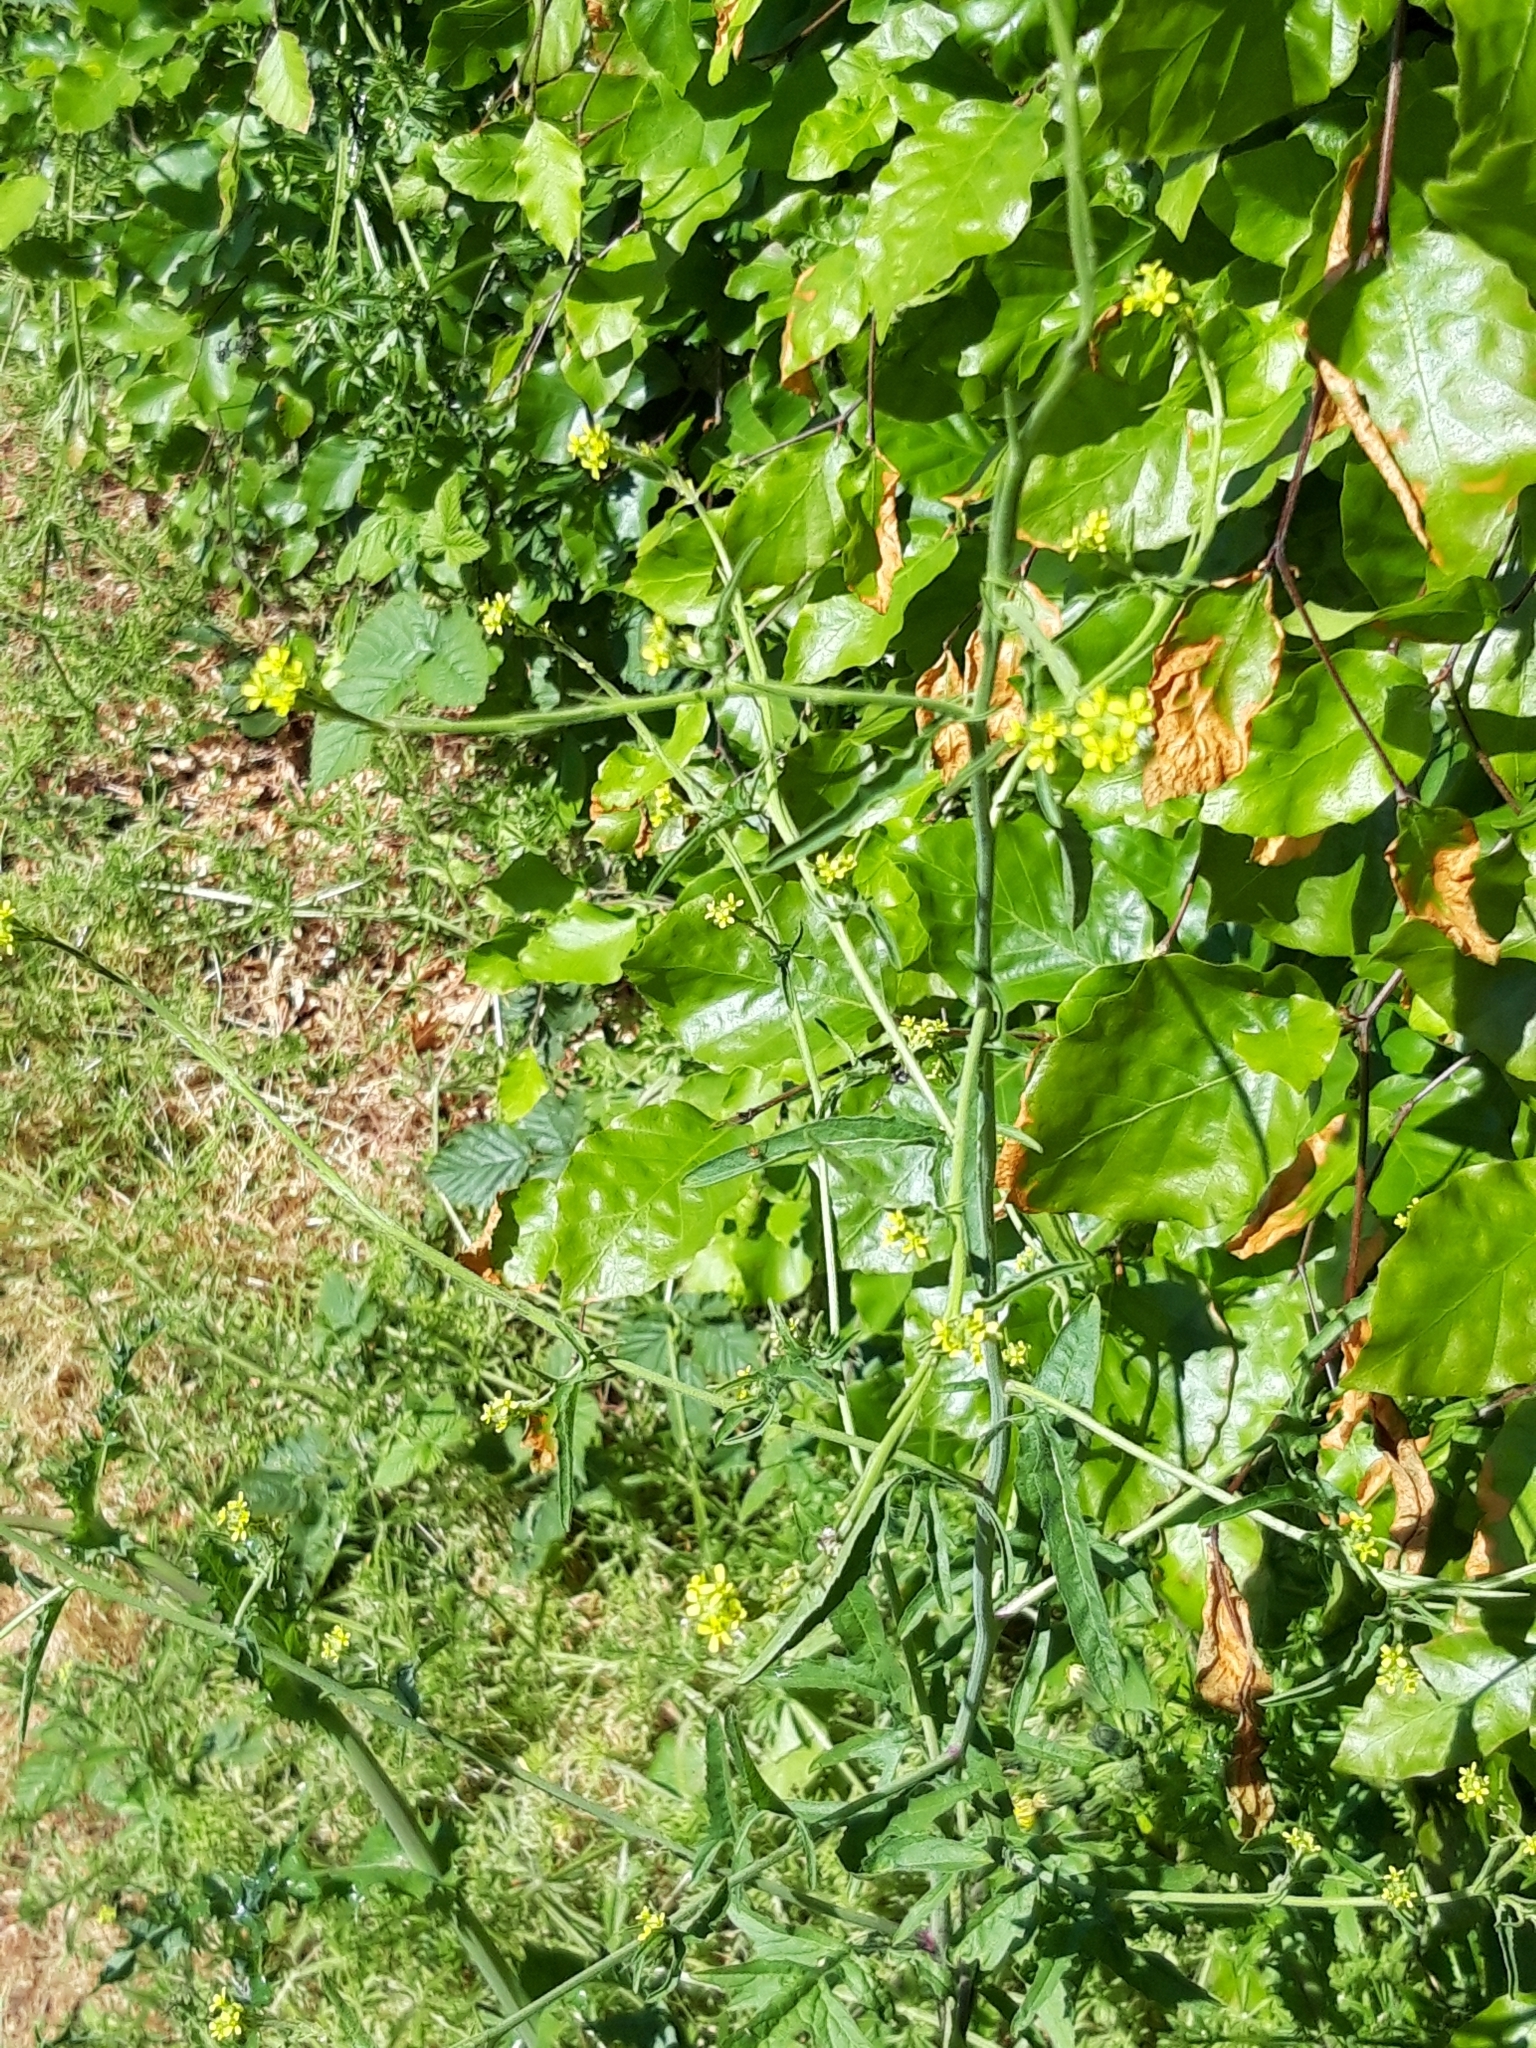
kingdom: Plantae
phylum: Tracheophyta
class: Magnoliopsida
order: Brassicales
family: Brassicaceae
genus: Sisymbrium
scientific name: Sisymbrium officinale
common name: Hedge mustard
